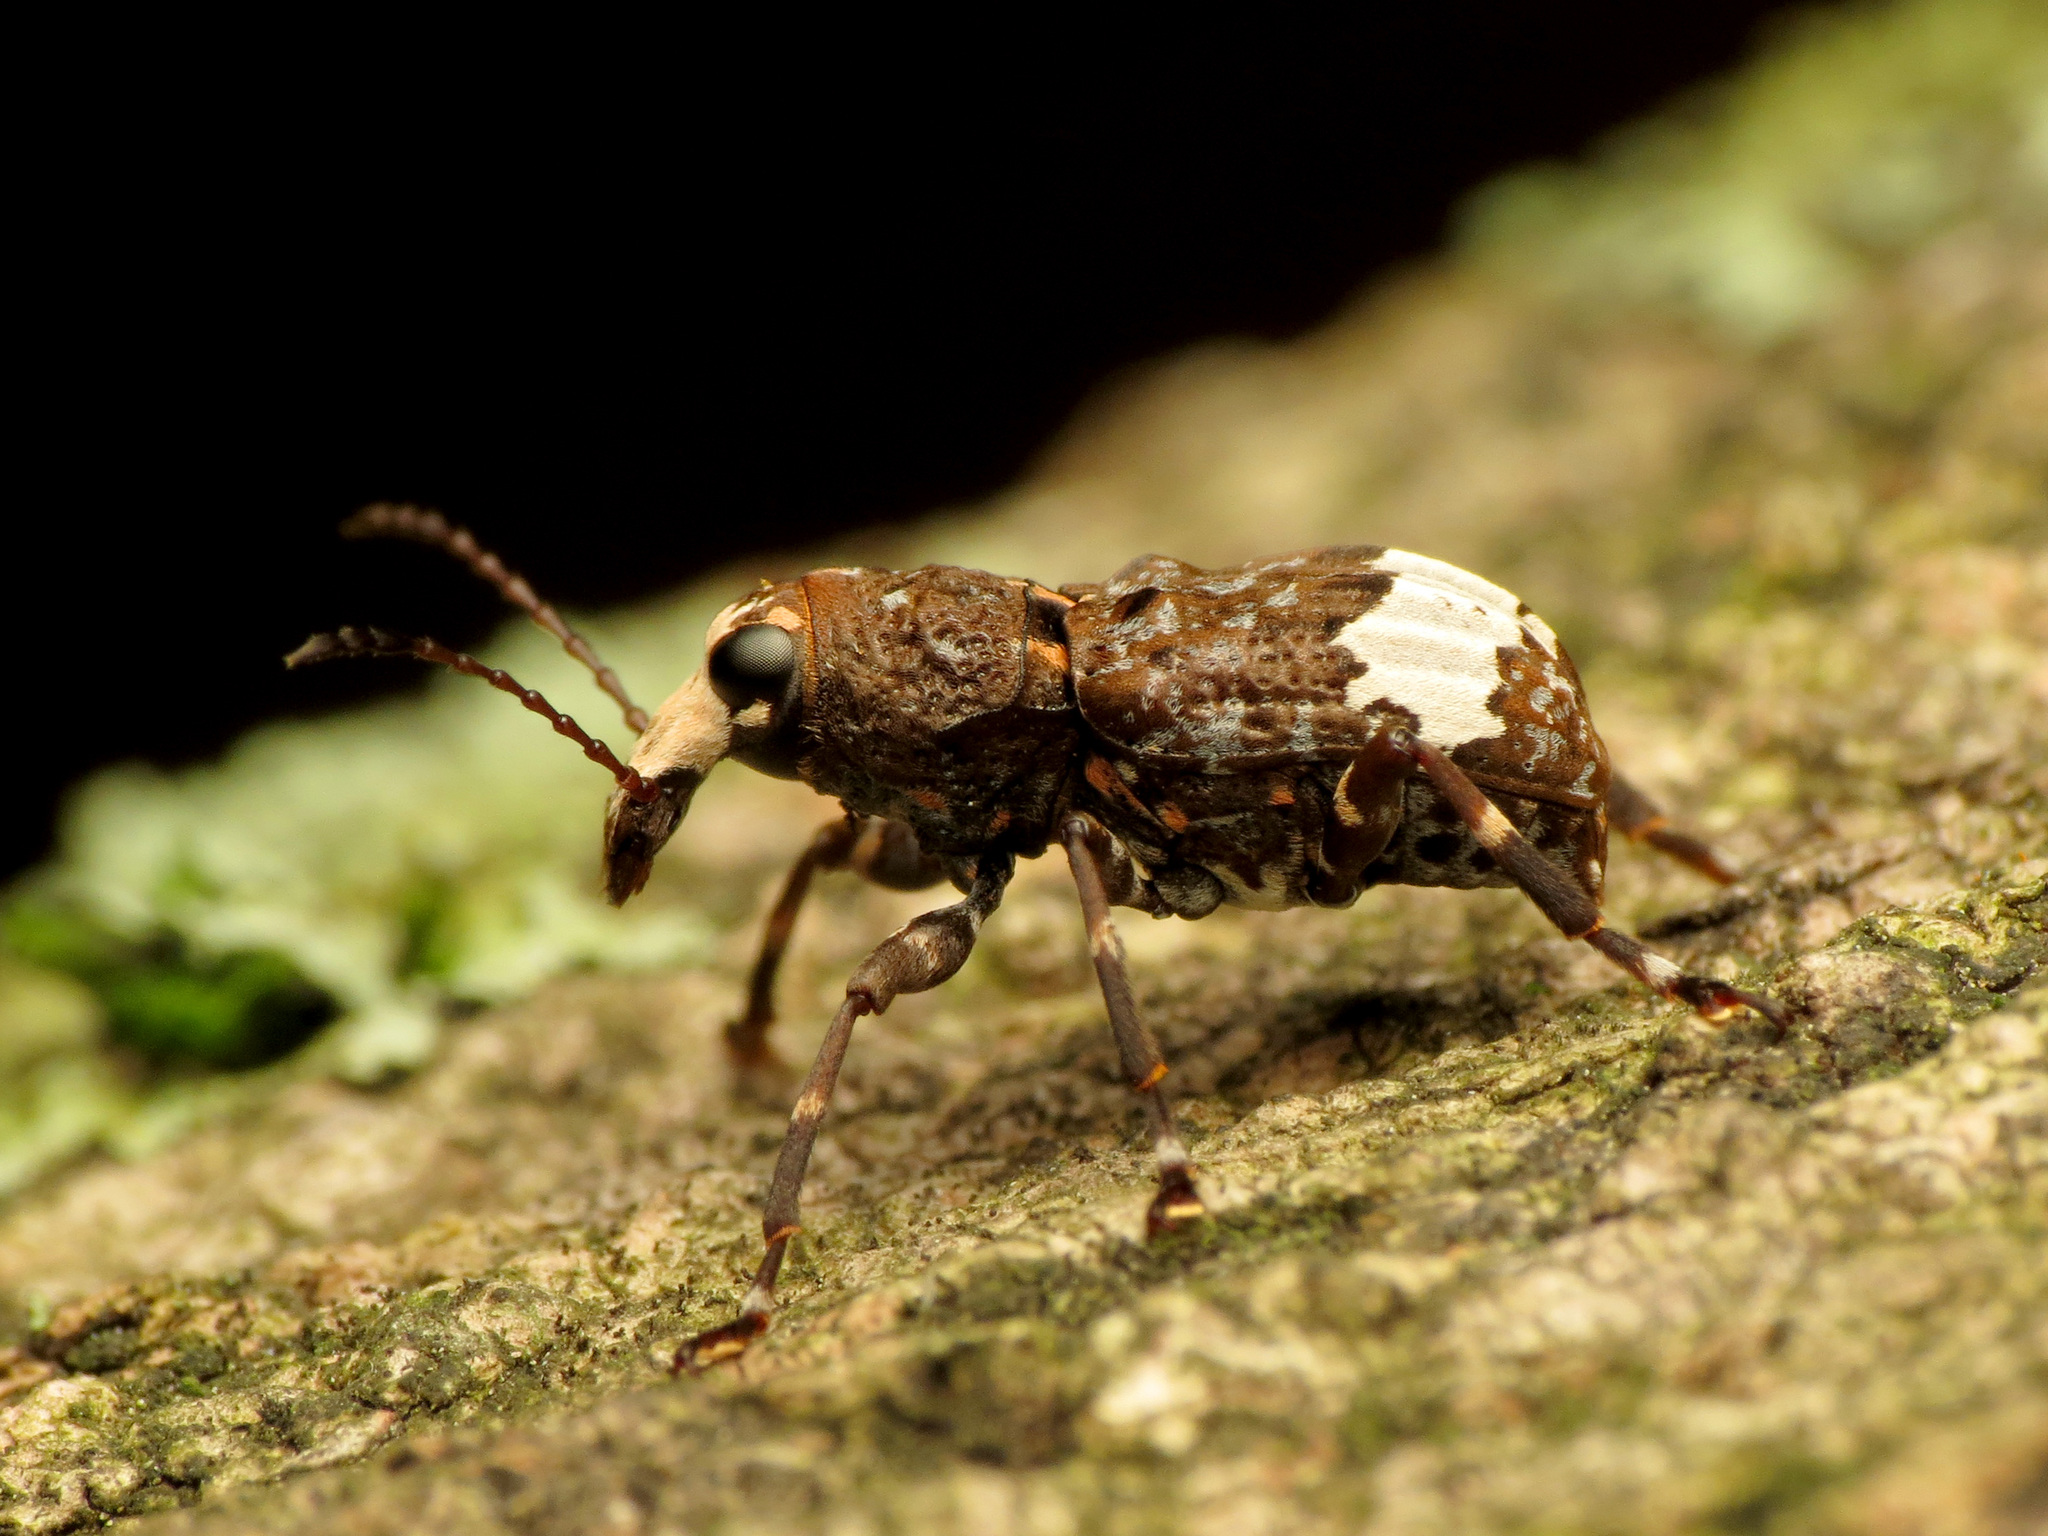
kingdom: Animalia
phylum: Arthropoda
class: Insecta
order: Coleoptera
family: Anthribidae
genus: Eurymycter
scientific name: Eurymycter fasciatus
